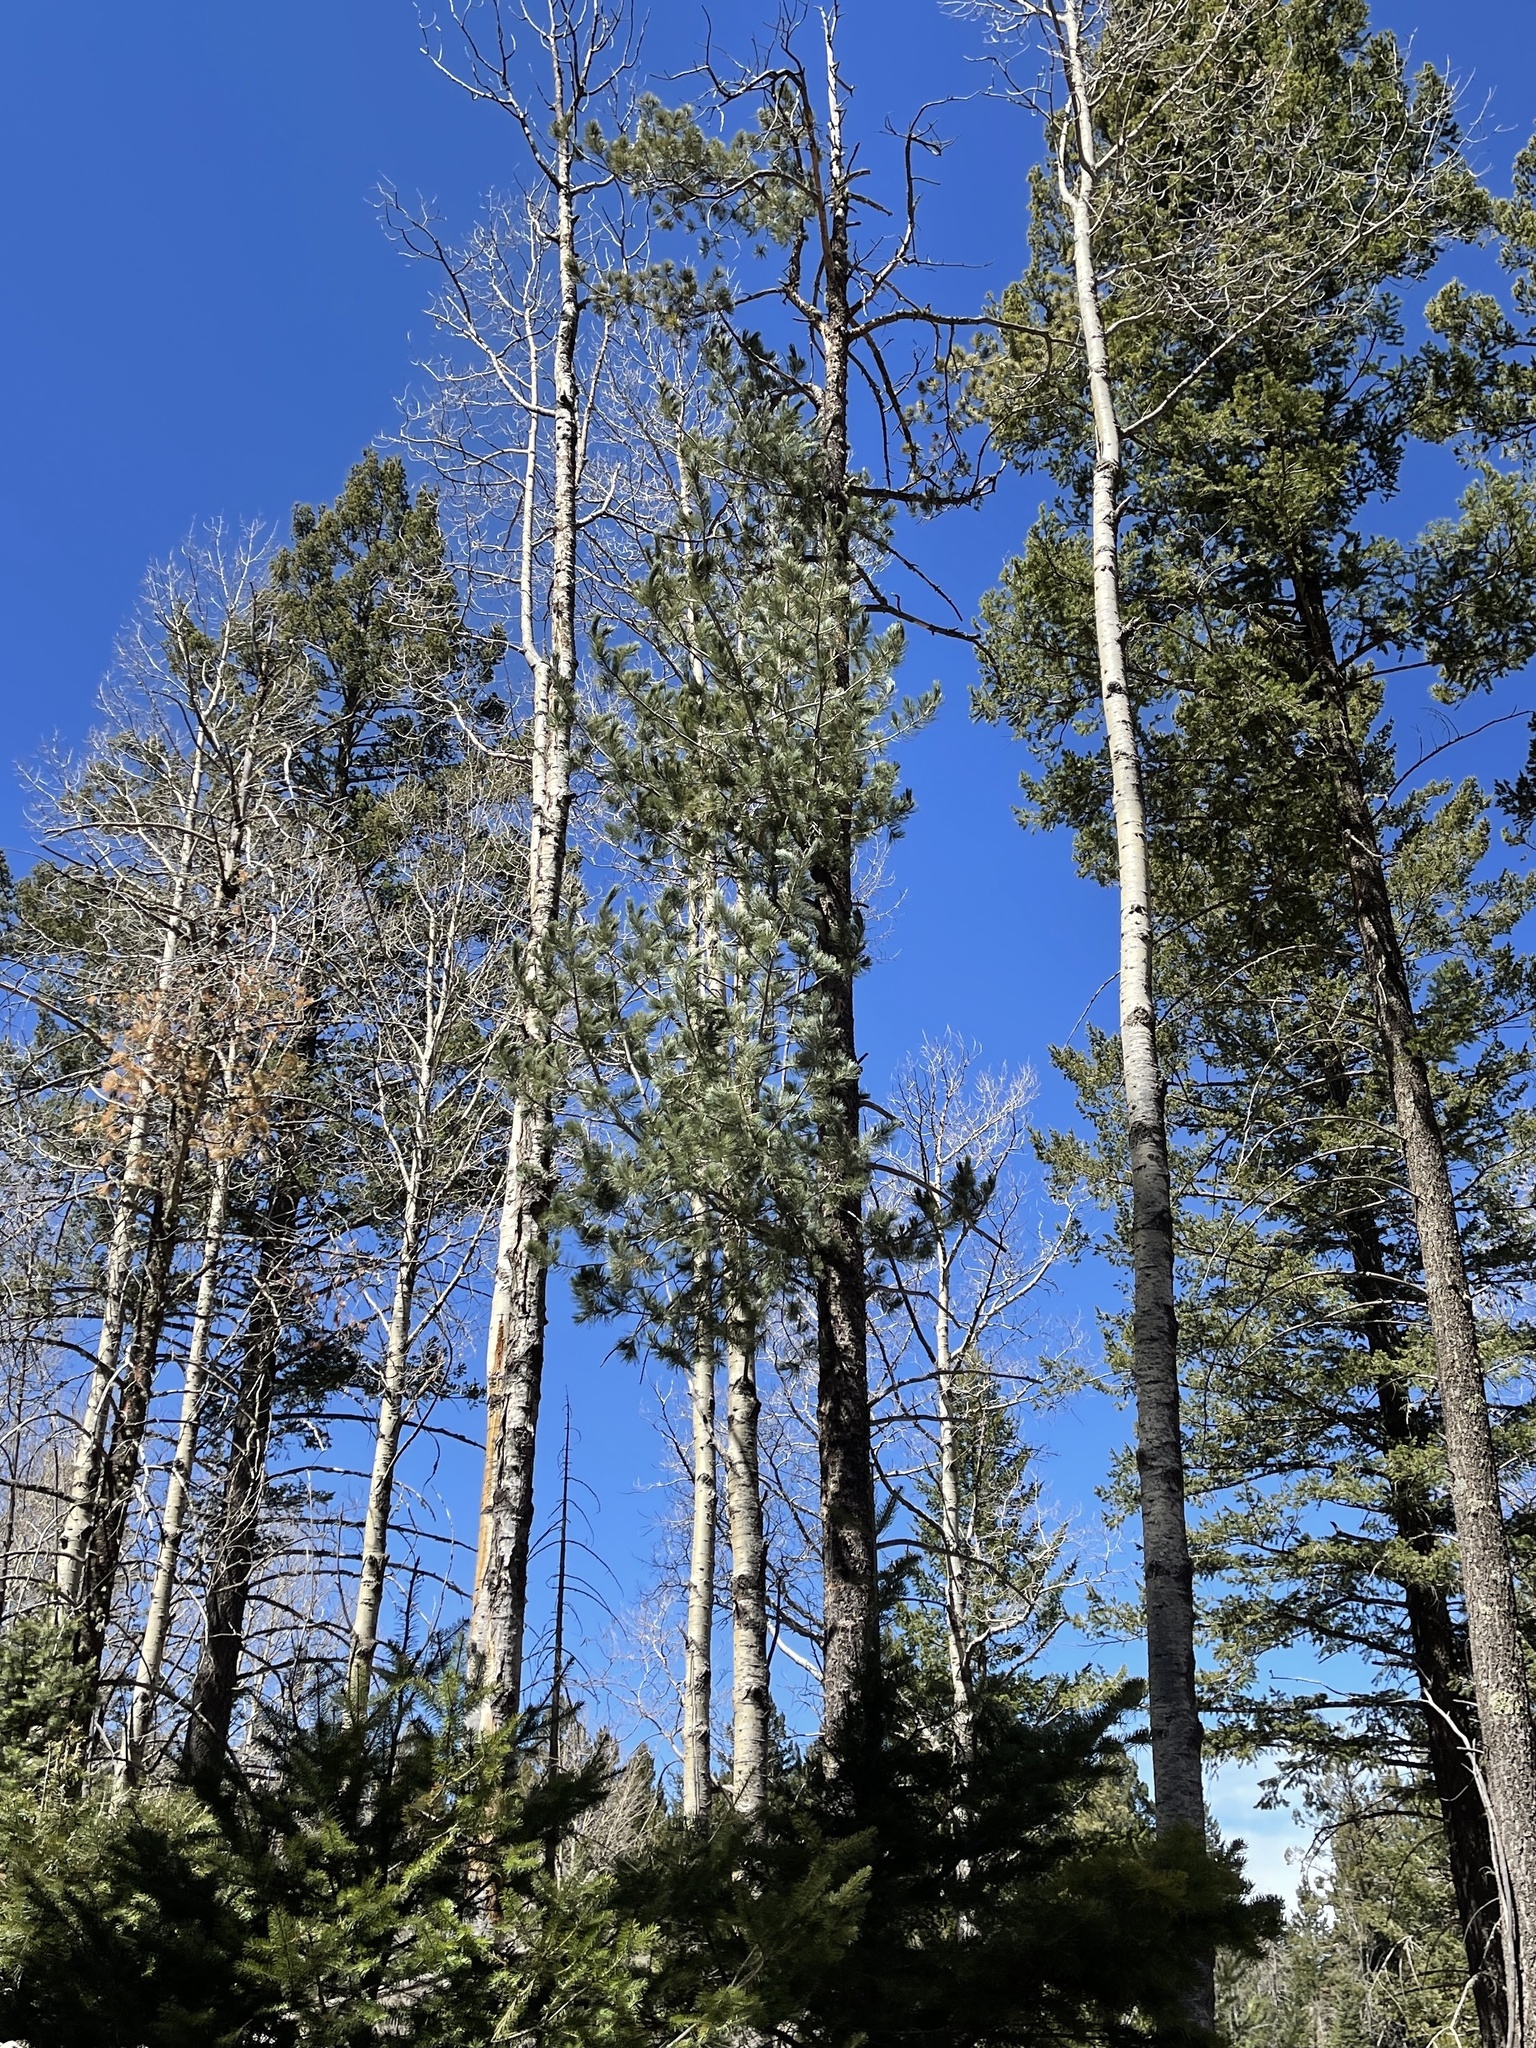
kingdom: Plantae
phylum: Tracheophyta
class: Pinopsida
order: Pinales
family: Pinaceae
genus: Pinus
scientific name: Pinus strobiformis
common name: Southwestern white pine
